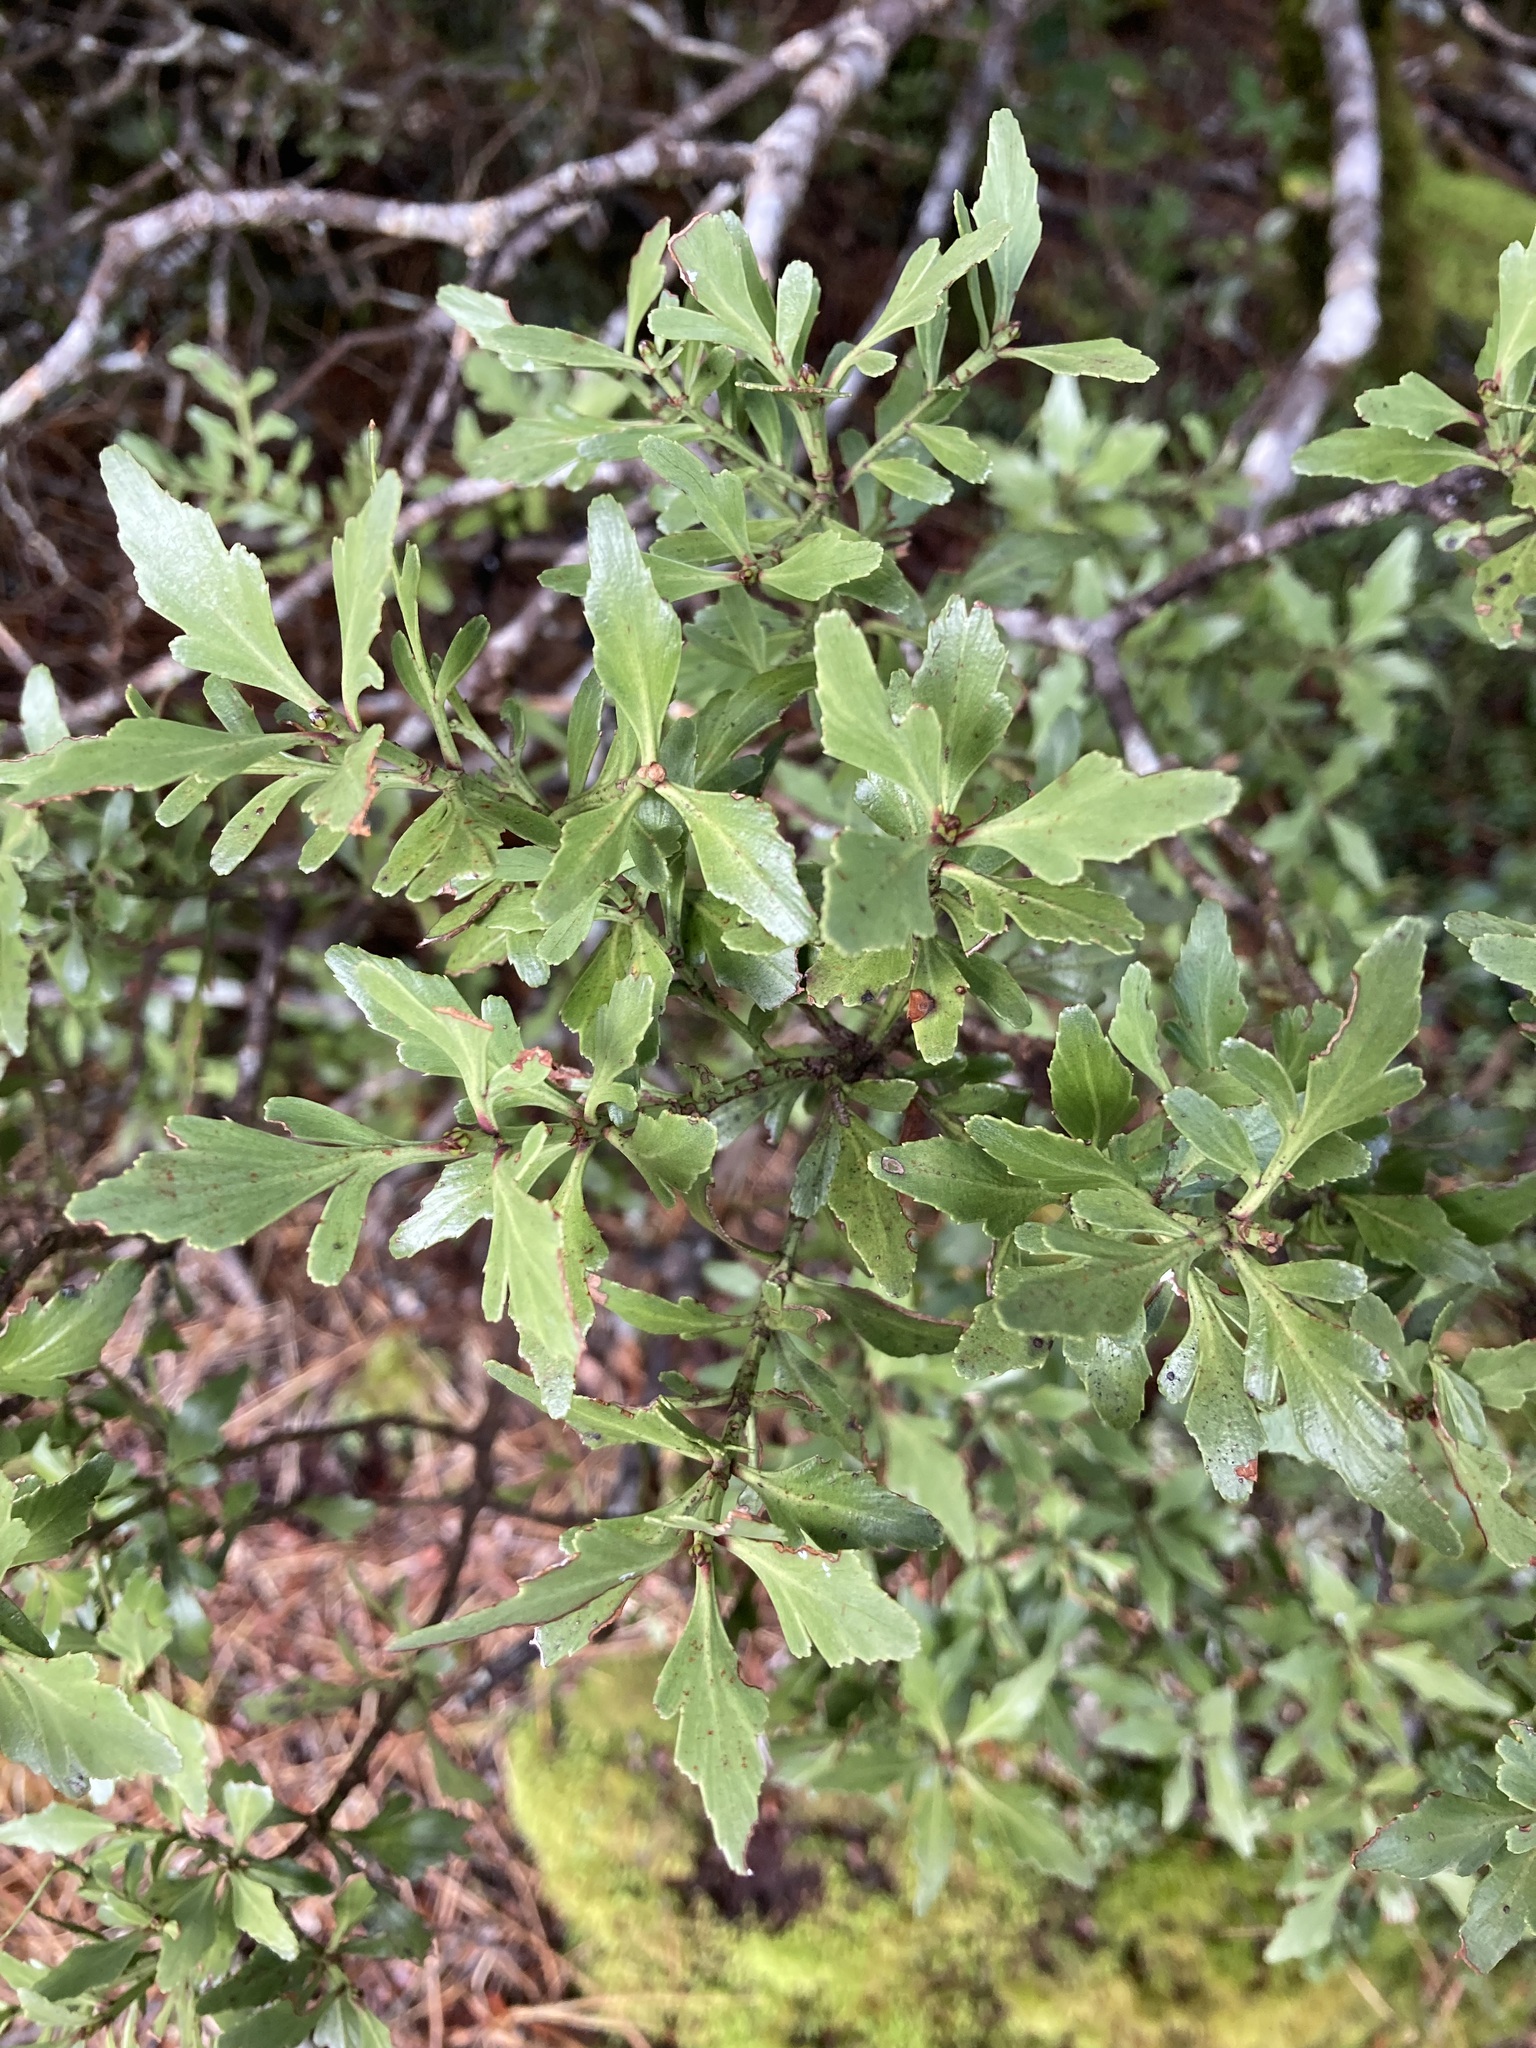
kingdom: Plantae
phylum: Tracheophyta
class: Pinopsida
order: Pinales
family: Phyllocladaceae
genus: Phyllocladus
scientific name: Phyllocladus trichomanoides
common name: Celery pine
